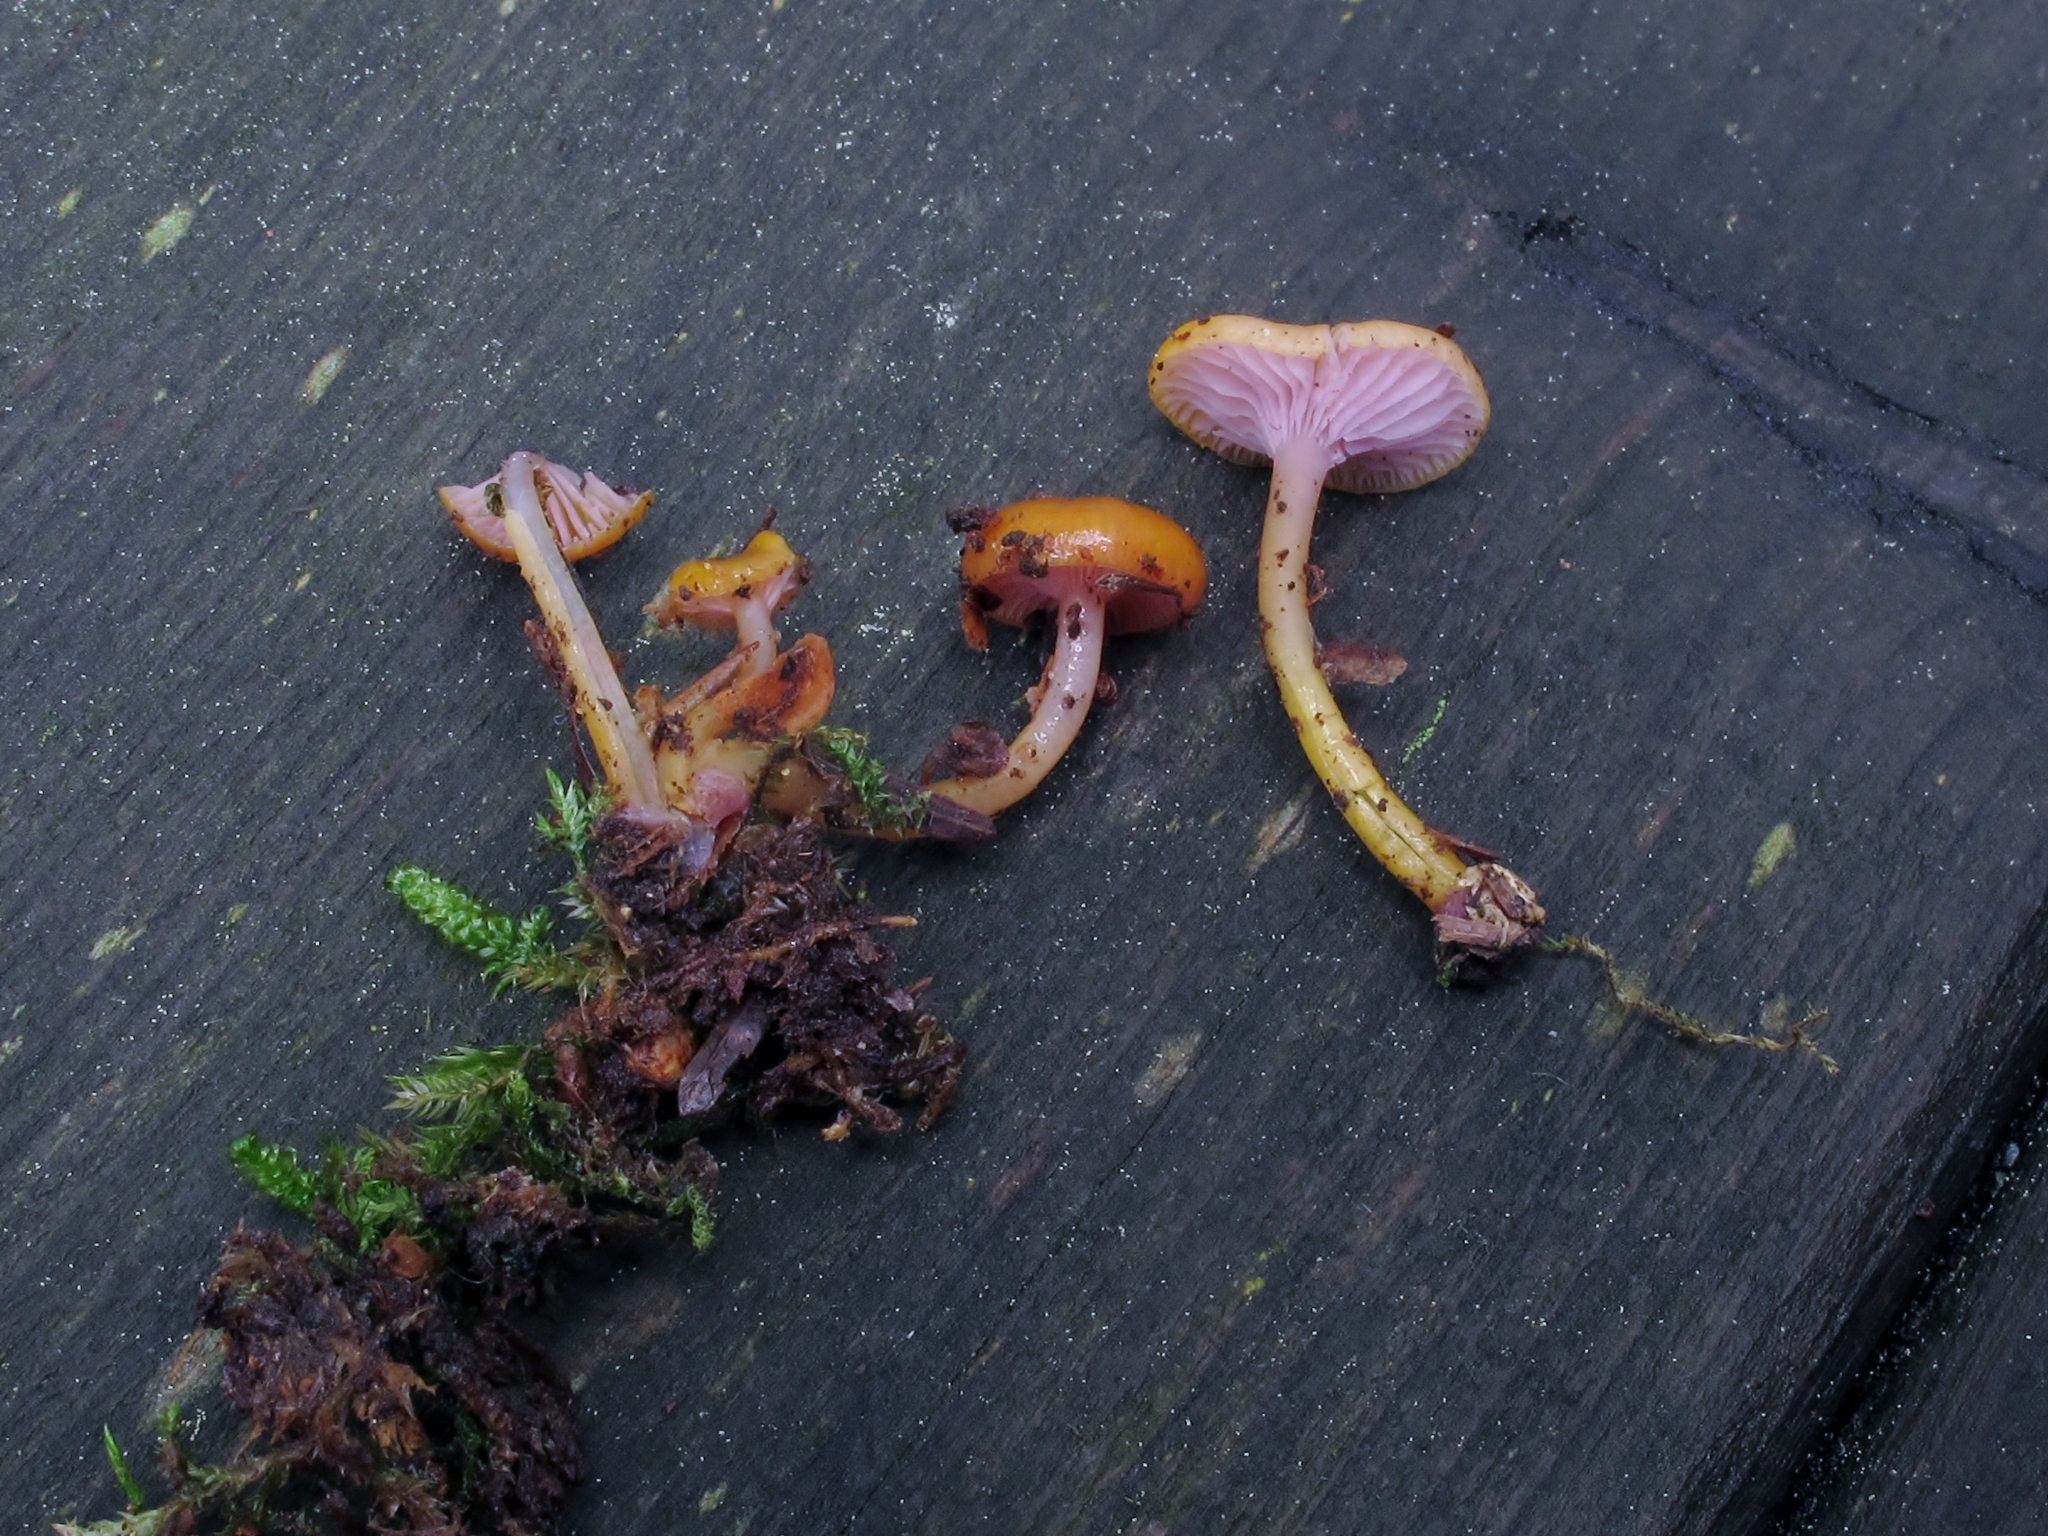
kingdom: Fungi
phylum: Basidiomycota
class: Agaricomycetes
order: Agaricales
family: Hygrophoraceae
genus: Chromosera
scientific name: Chromosera cyanophylla
